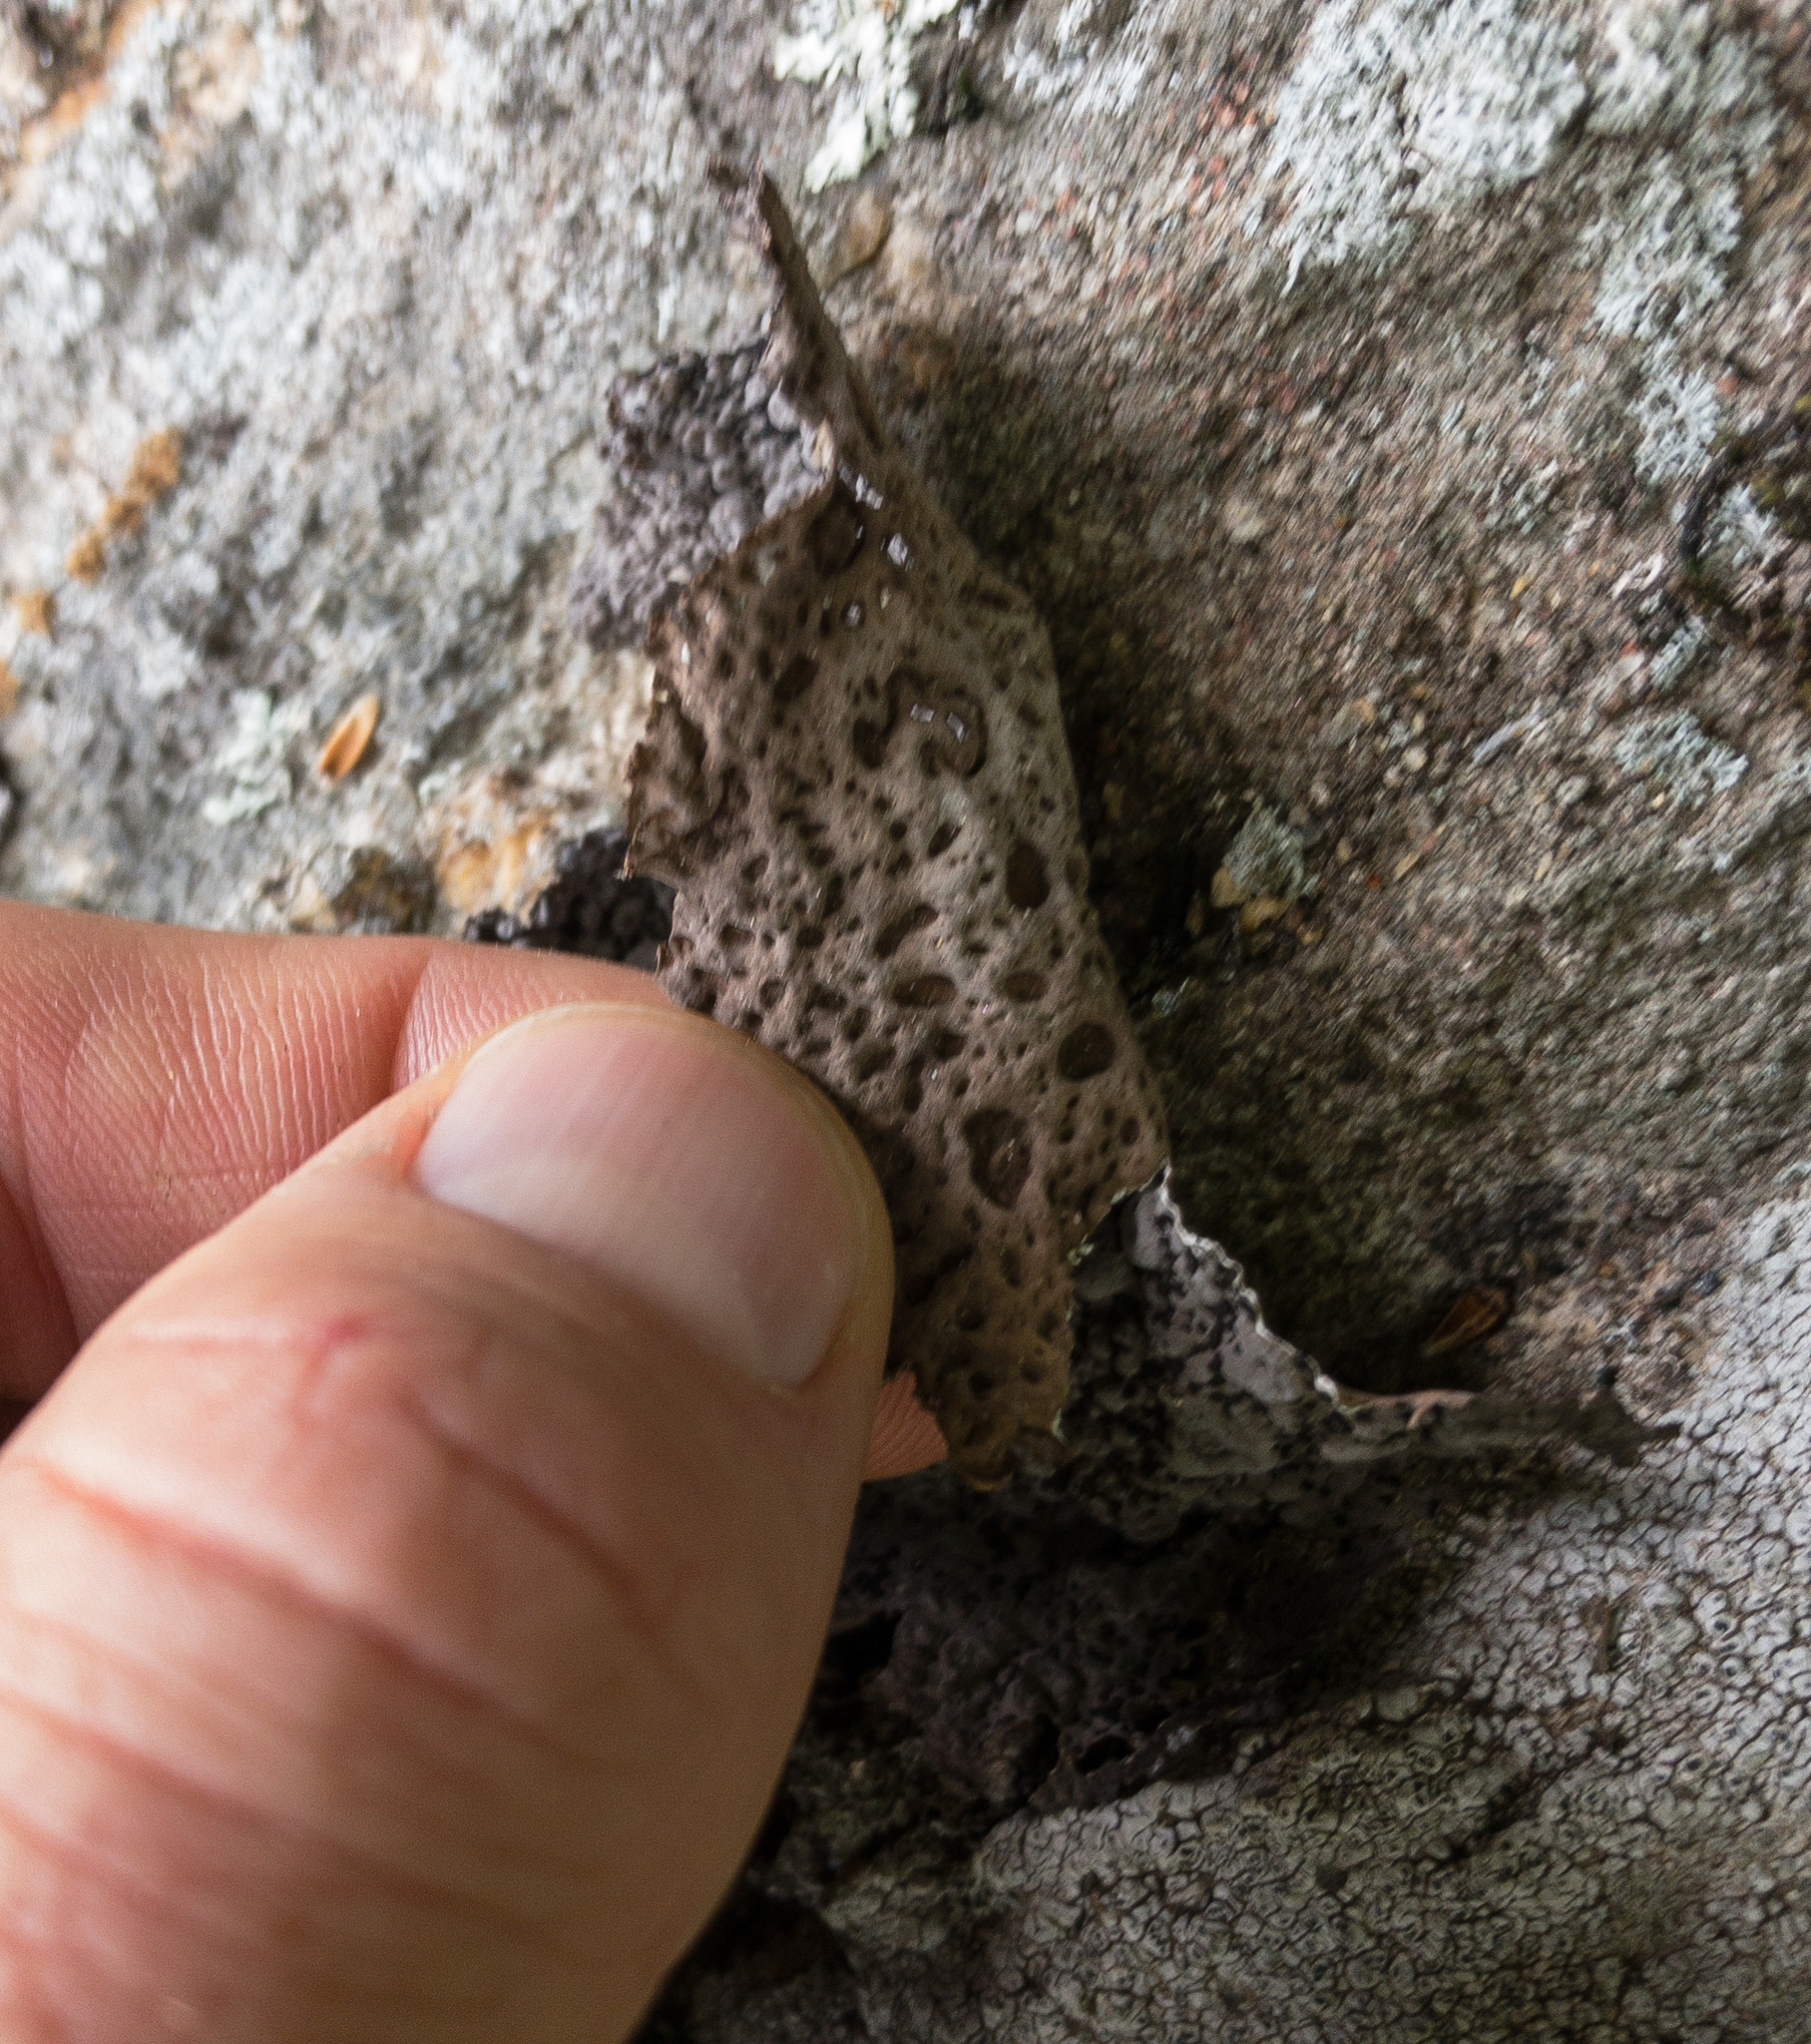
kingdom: Fungi
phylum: Ascomycota
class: Lecanoromycetes
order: Umbilicariales
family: Umbilicariaceae
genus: Lasallia
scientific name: Lasallia papulosa
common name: Common toadskin lichen
